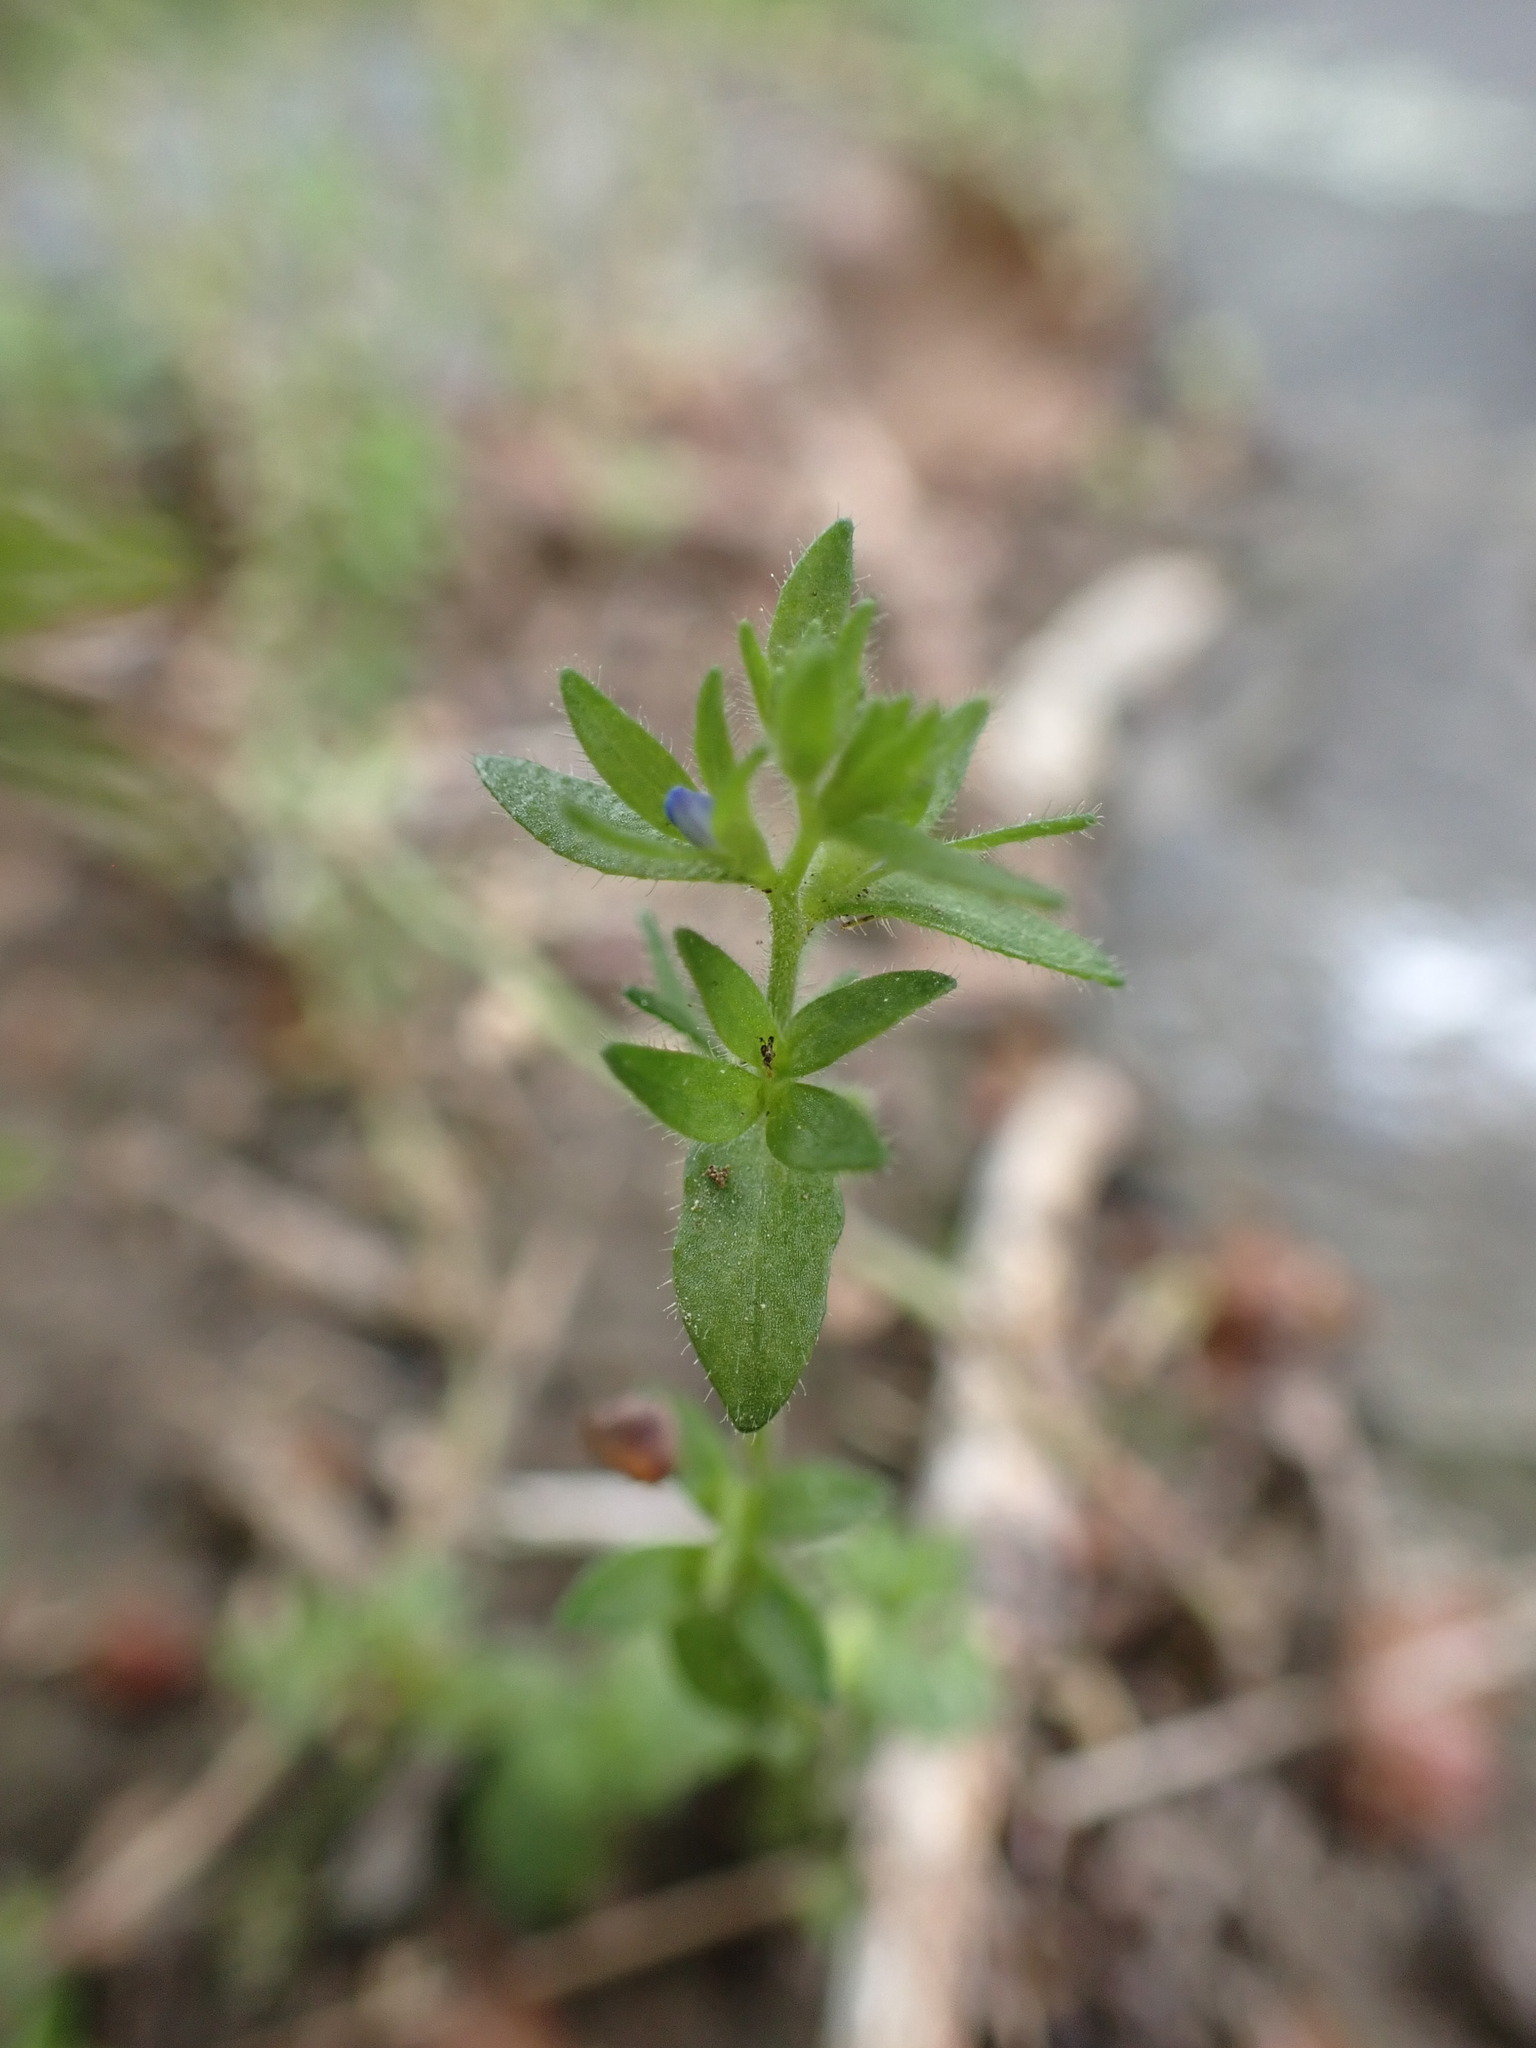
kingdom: Plantae
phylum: Tracheophyta
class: Magnoliopsida
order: Lamiales
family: Plantaginaceae
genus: Veronica
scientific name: Veronica arvensis
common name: Corn speedwell
